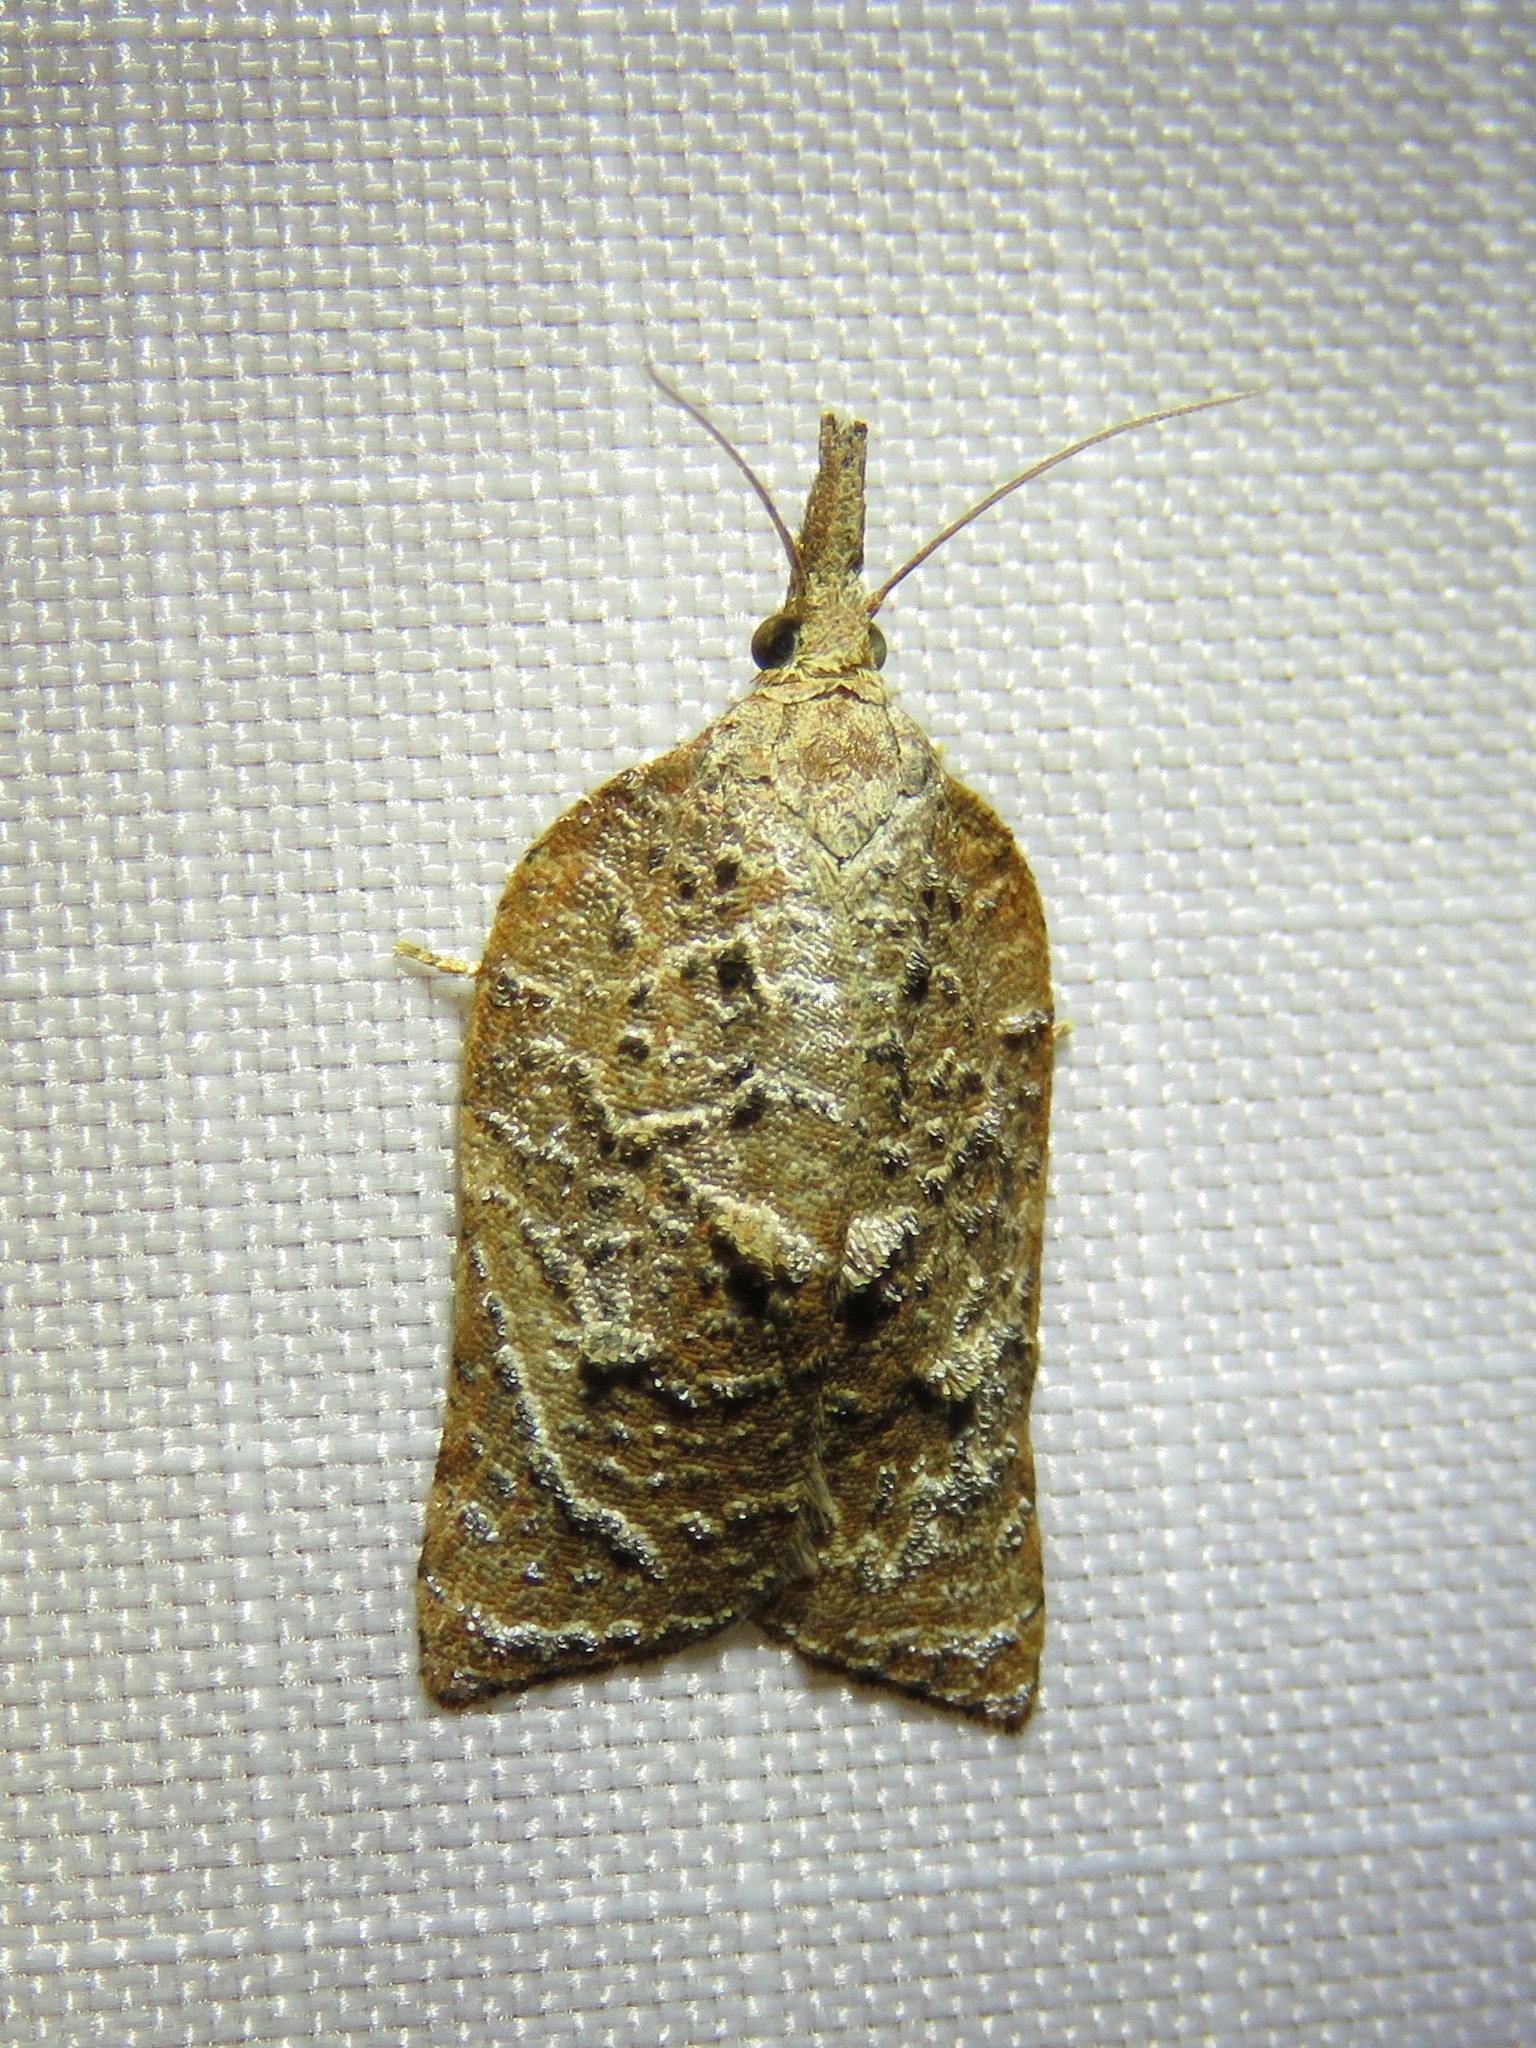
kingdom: Animalia
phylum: Arthropoda
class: Insecta
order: Lepidoptera
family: Tortricidae
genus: Platynota
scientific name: Platynota rostrana
